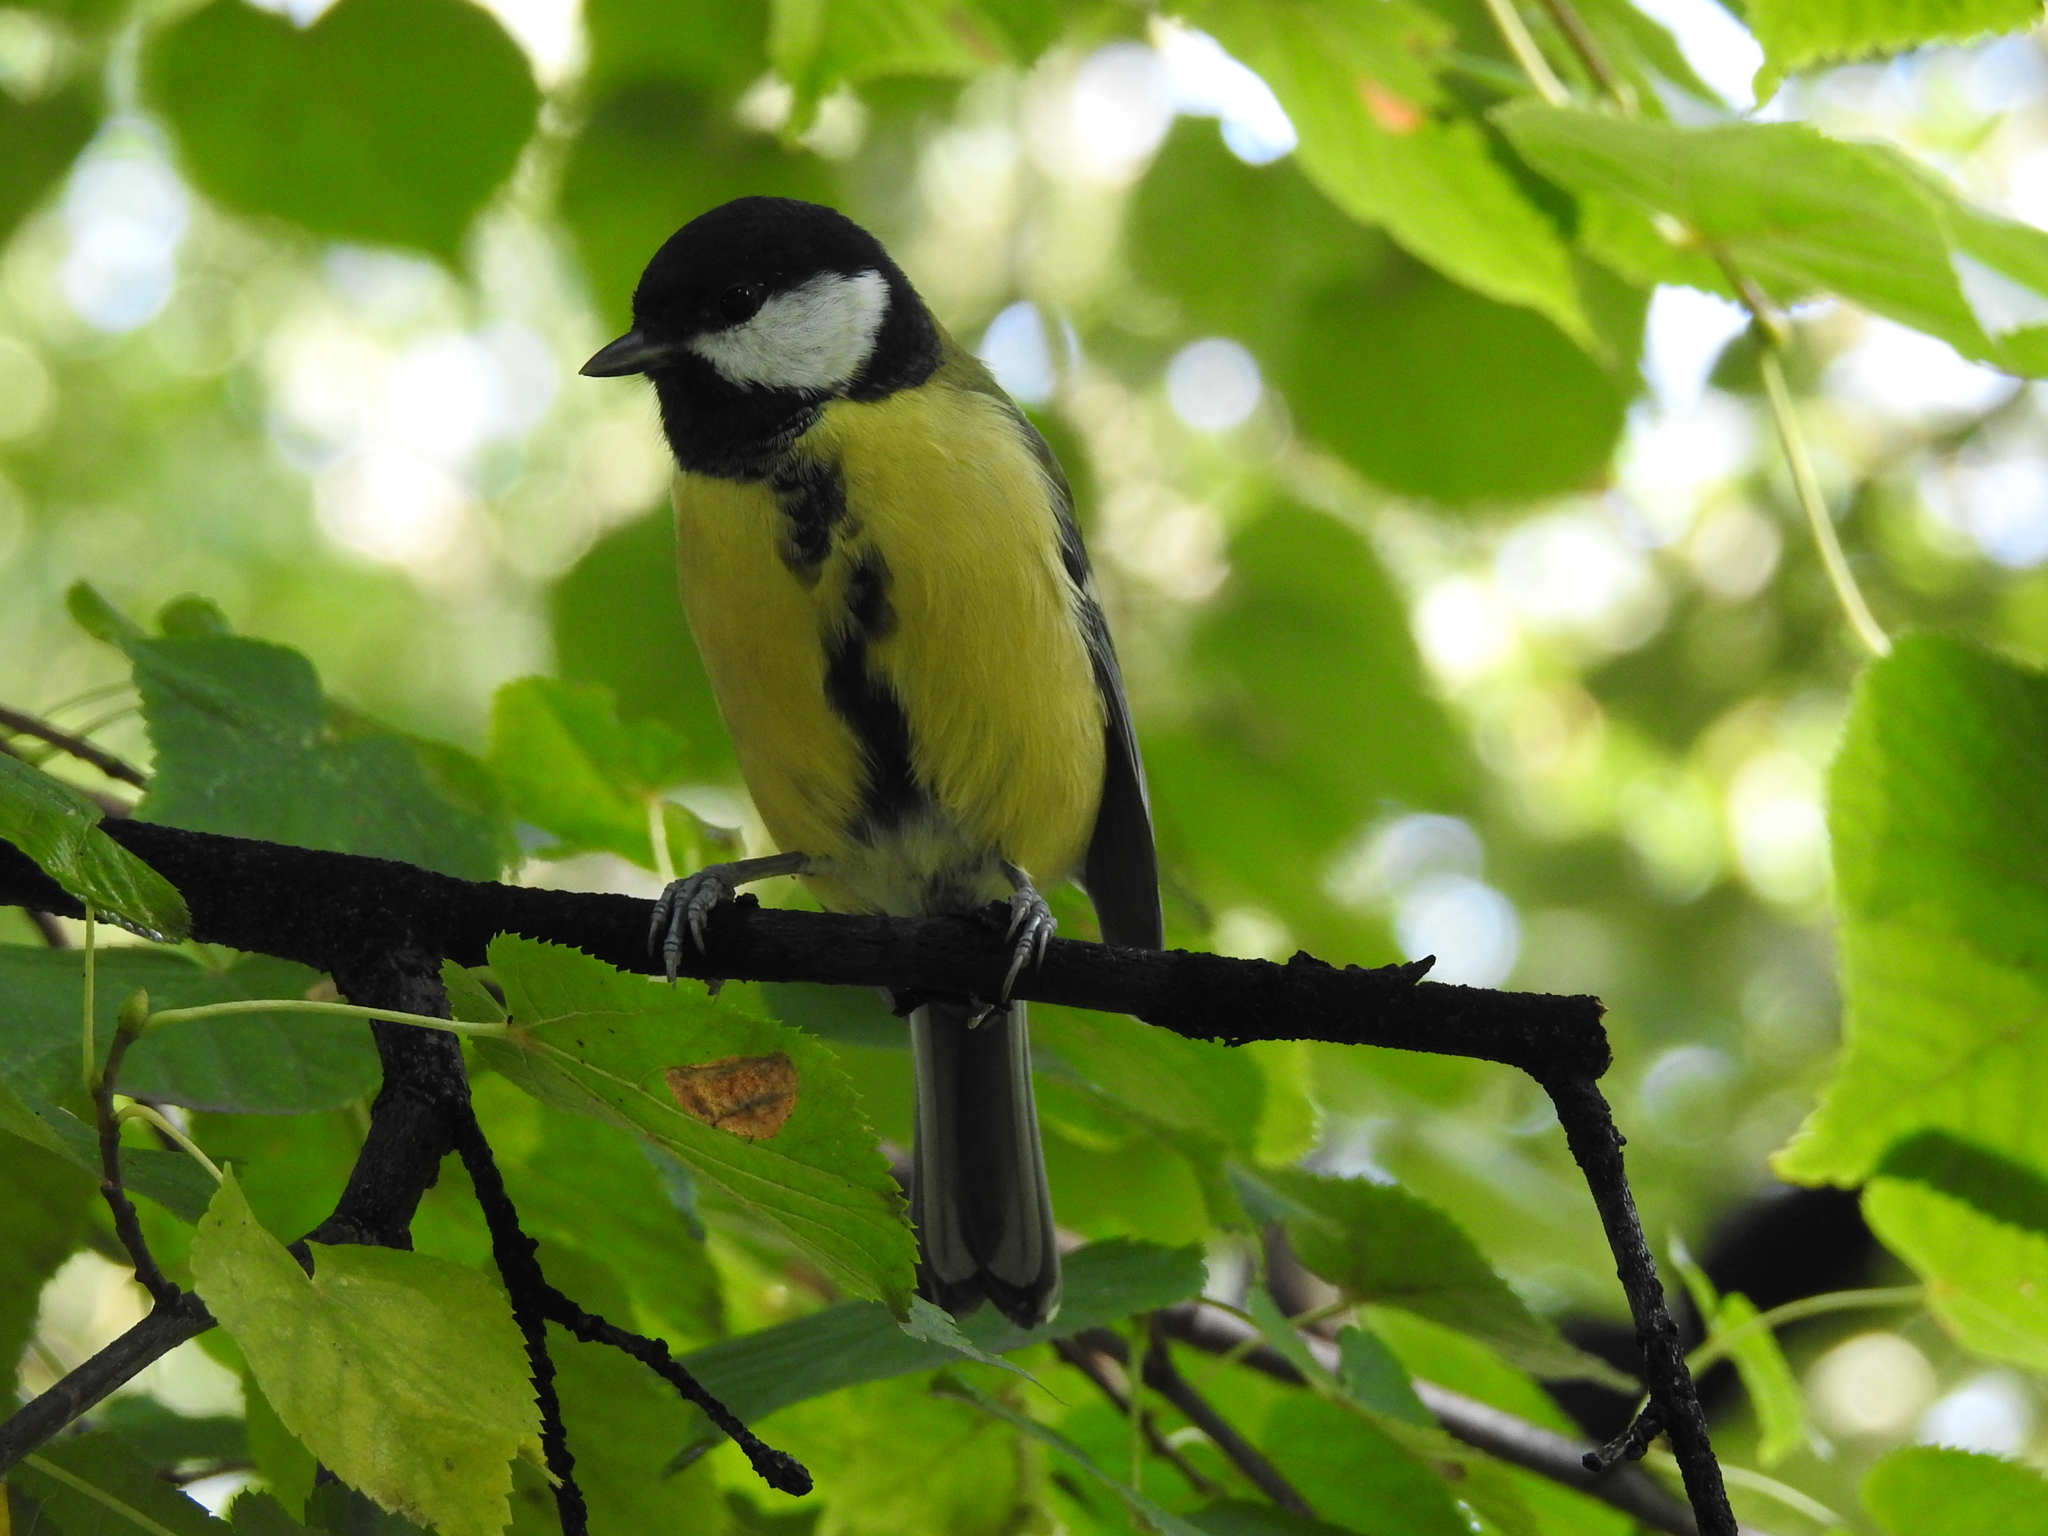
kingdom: Animalia
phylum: Chordata
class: Aves
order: Passeriformes
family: Paridae
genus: Parus
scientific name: Parus major
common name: Great tit
